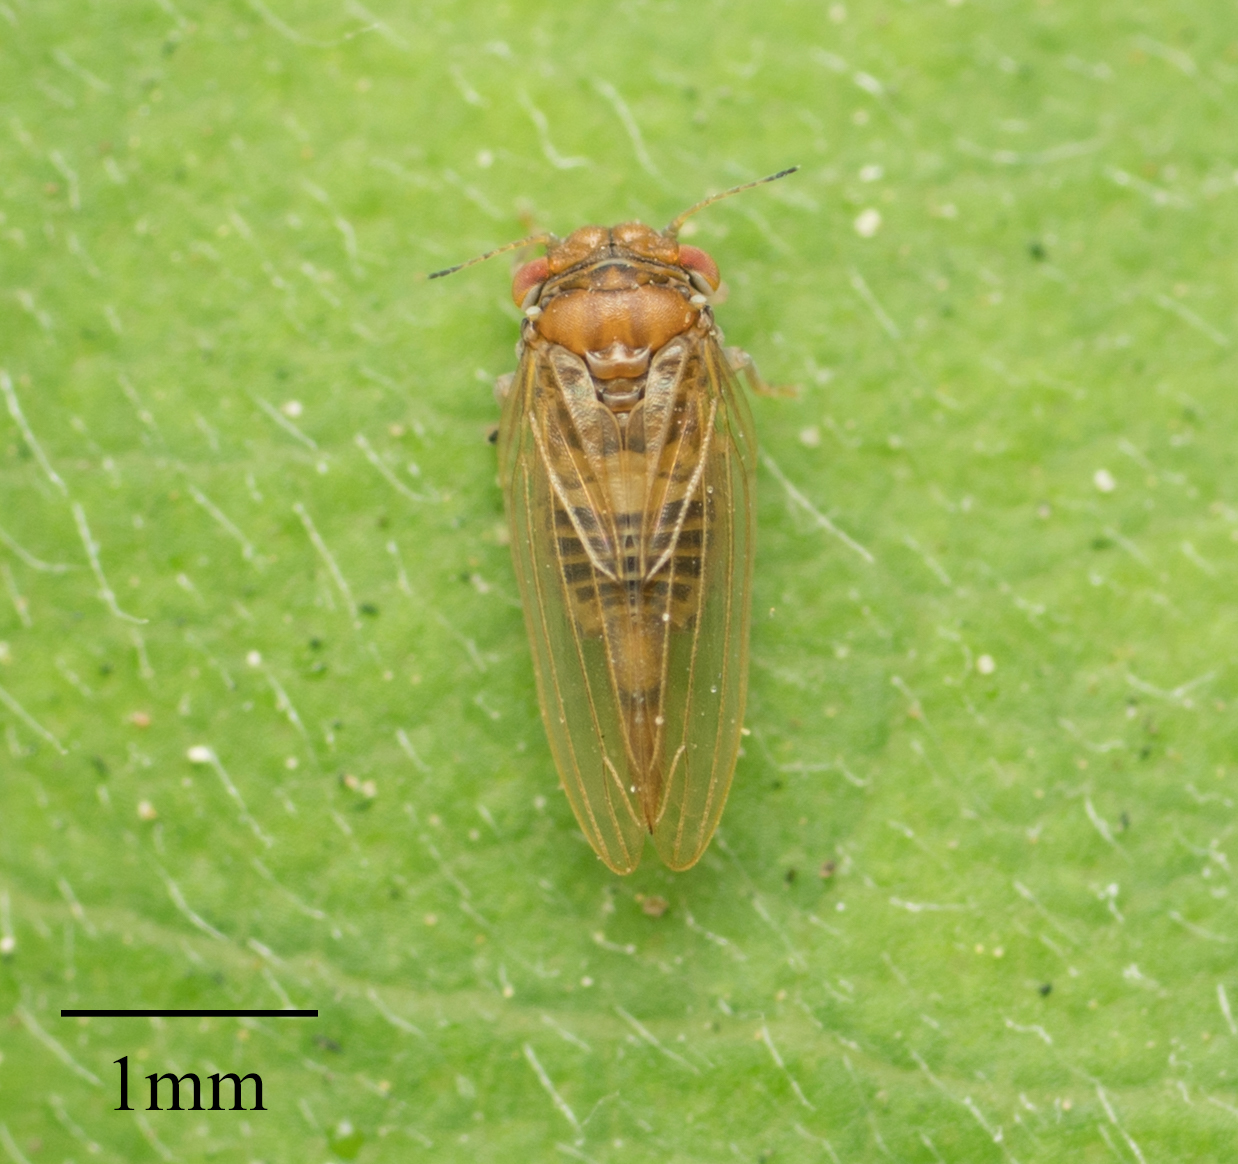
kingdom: Animalia
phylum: Arthropoda
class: Insecta
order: Hemiptera
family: Aphalaridae
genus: Ctenarytaina
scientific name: Ctenarytaina longicauda
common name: Tristania psyllid
